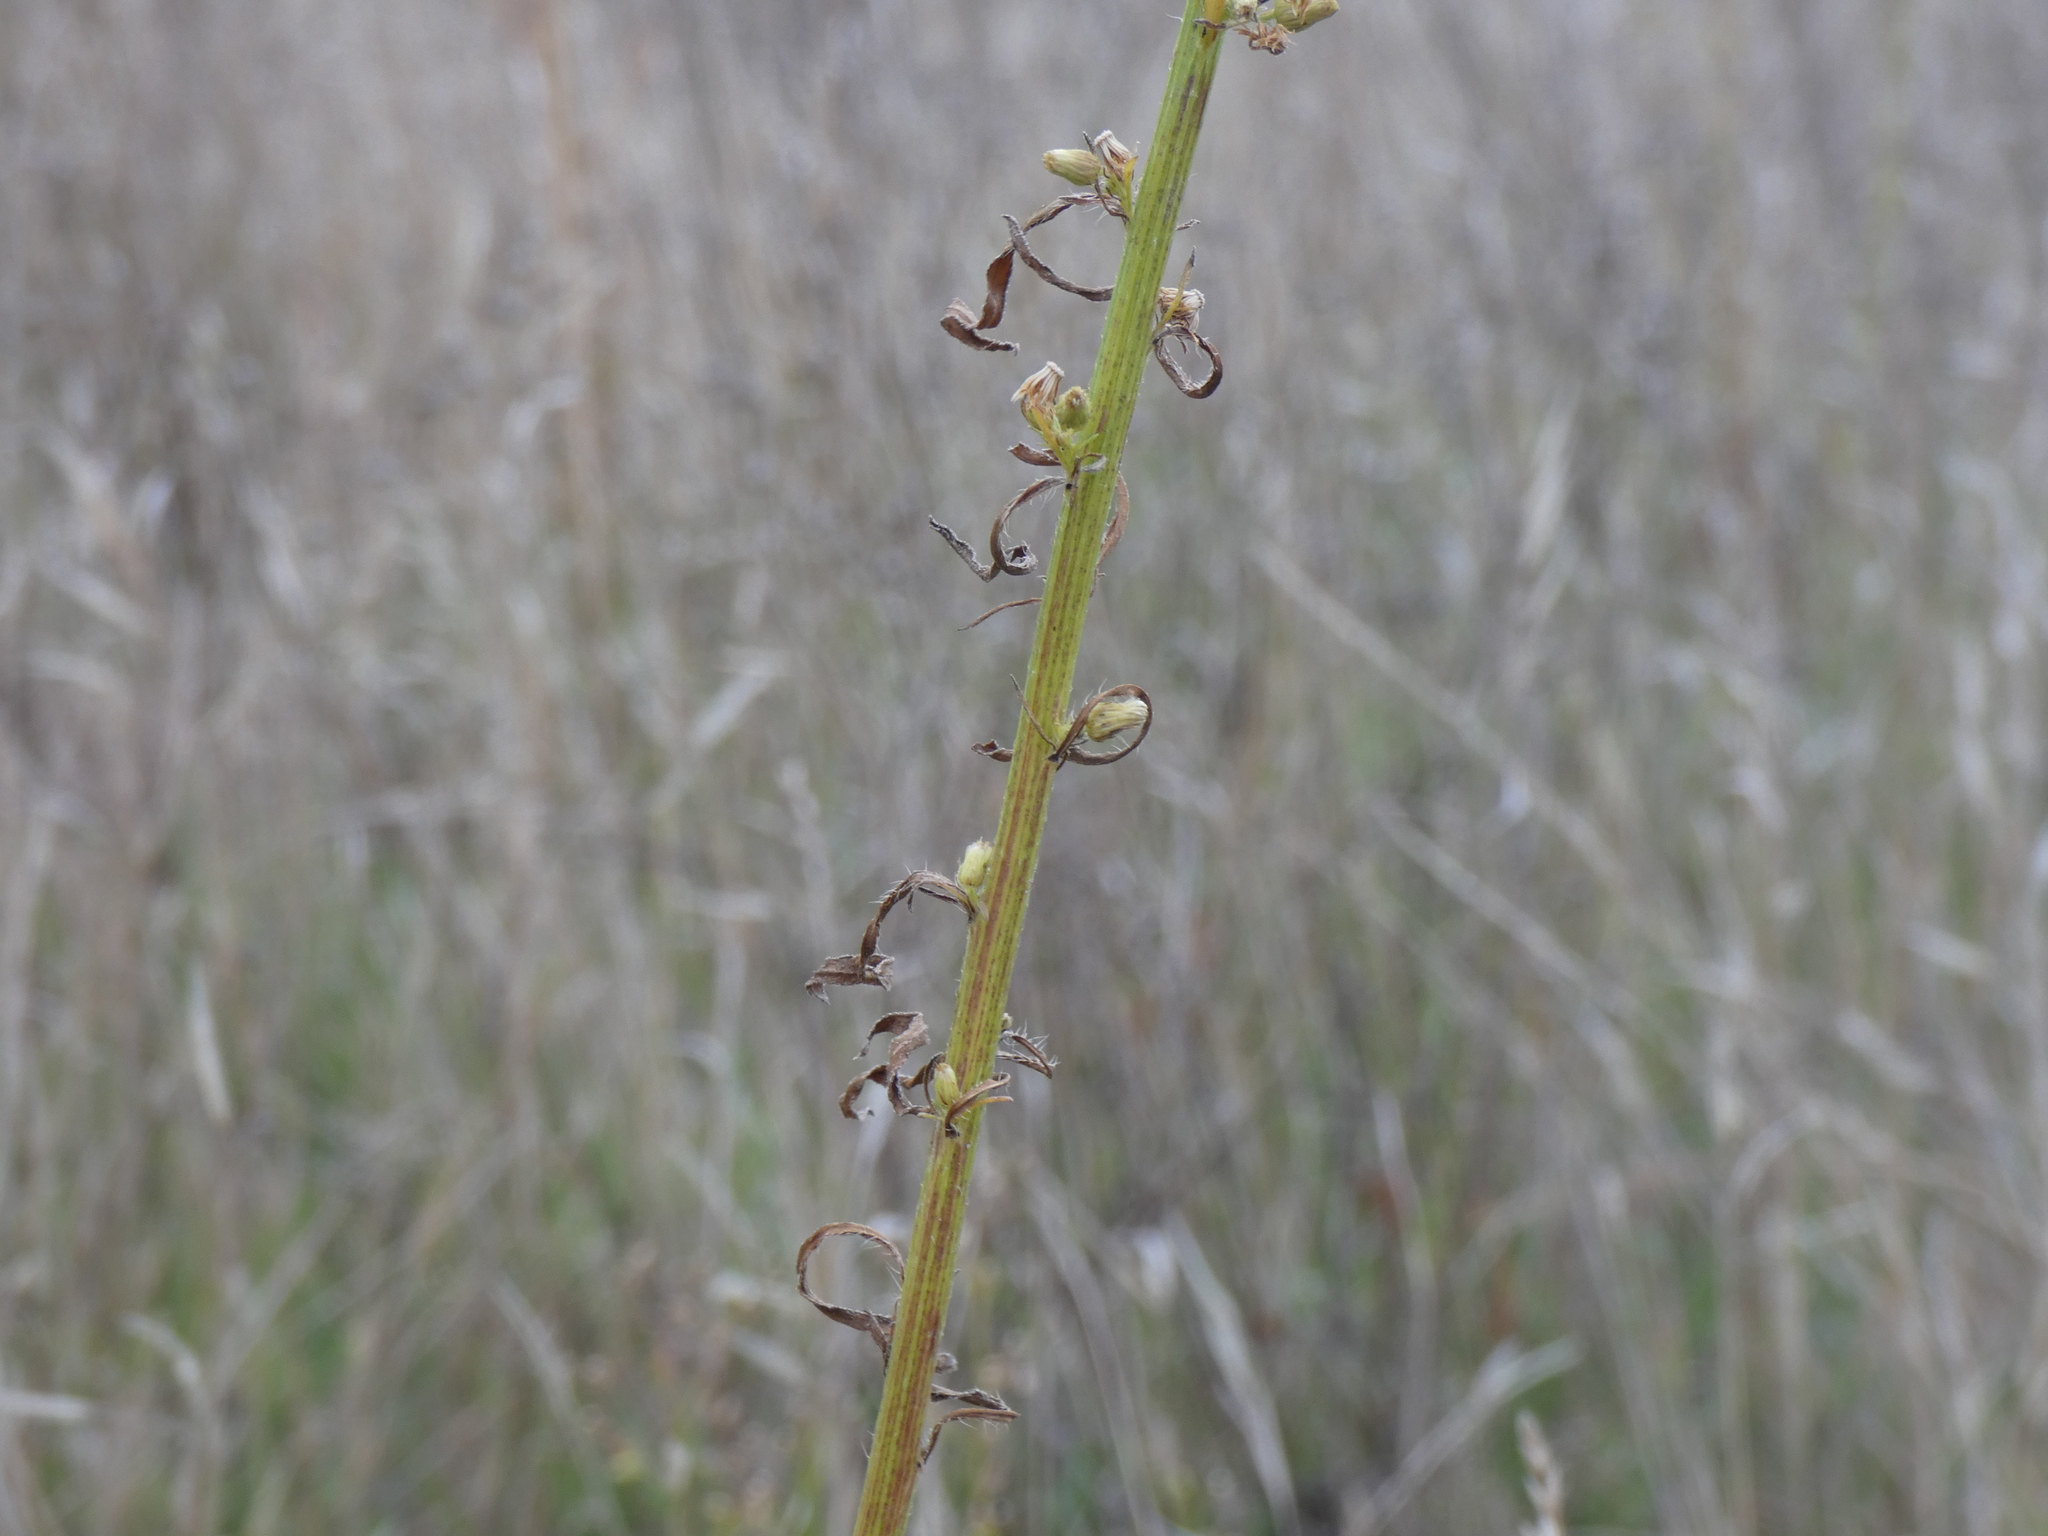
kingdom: Plantae
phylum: Tracheophyta
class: Magnoliopsida
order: Asterales
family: Asteraceae
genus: Erigeron
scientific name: Erigeron canadensis
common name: Canadian fleabane
